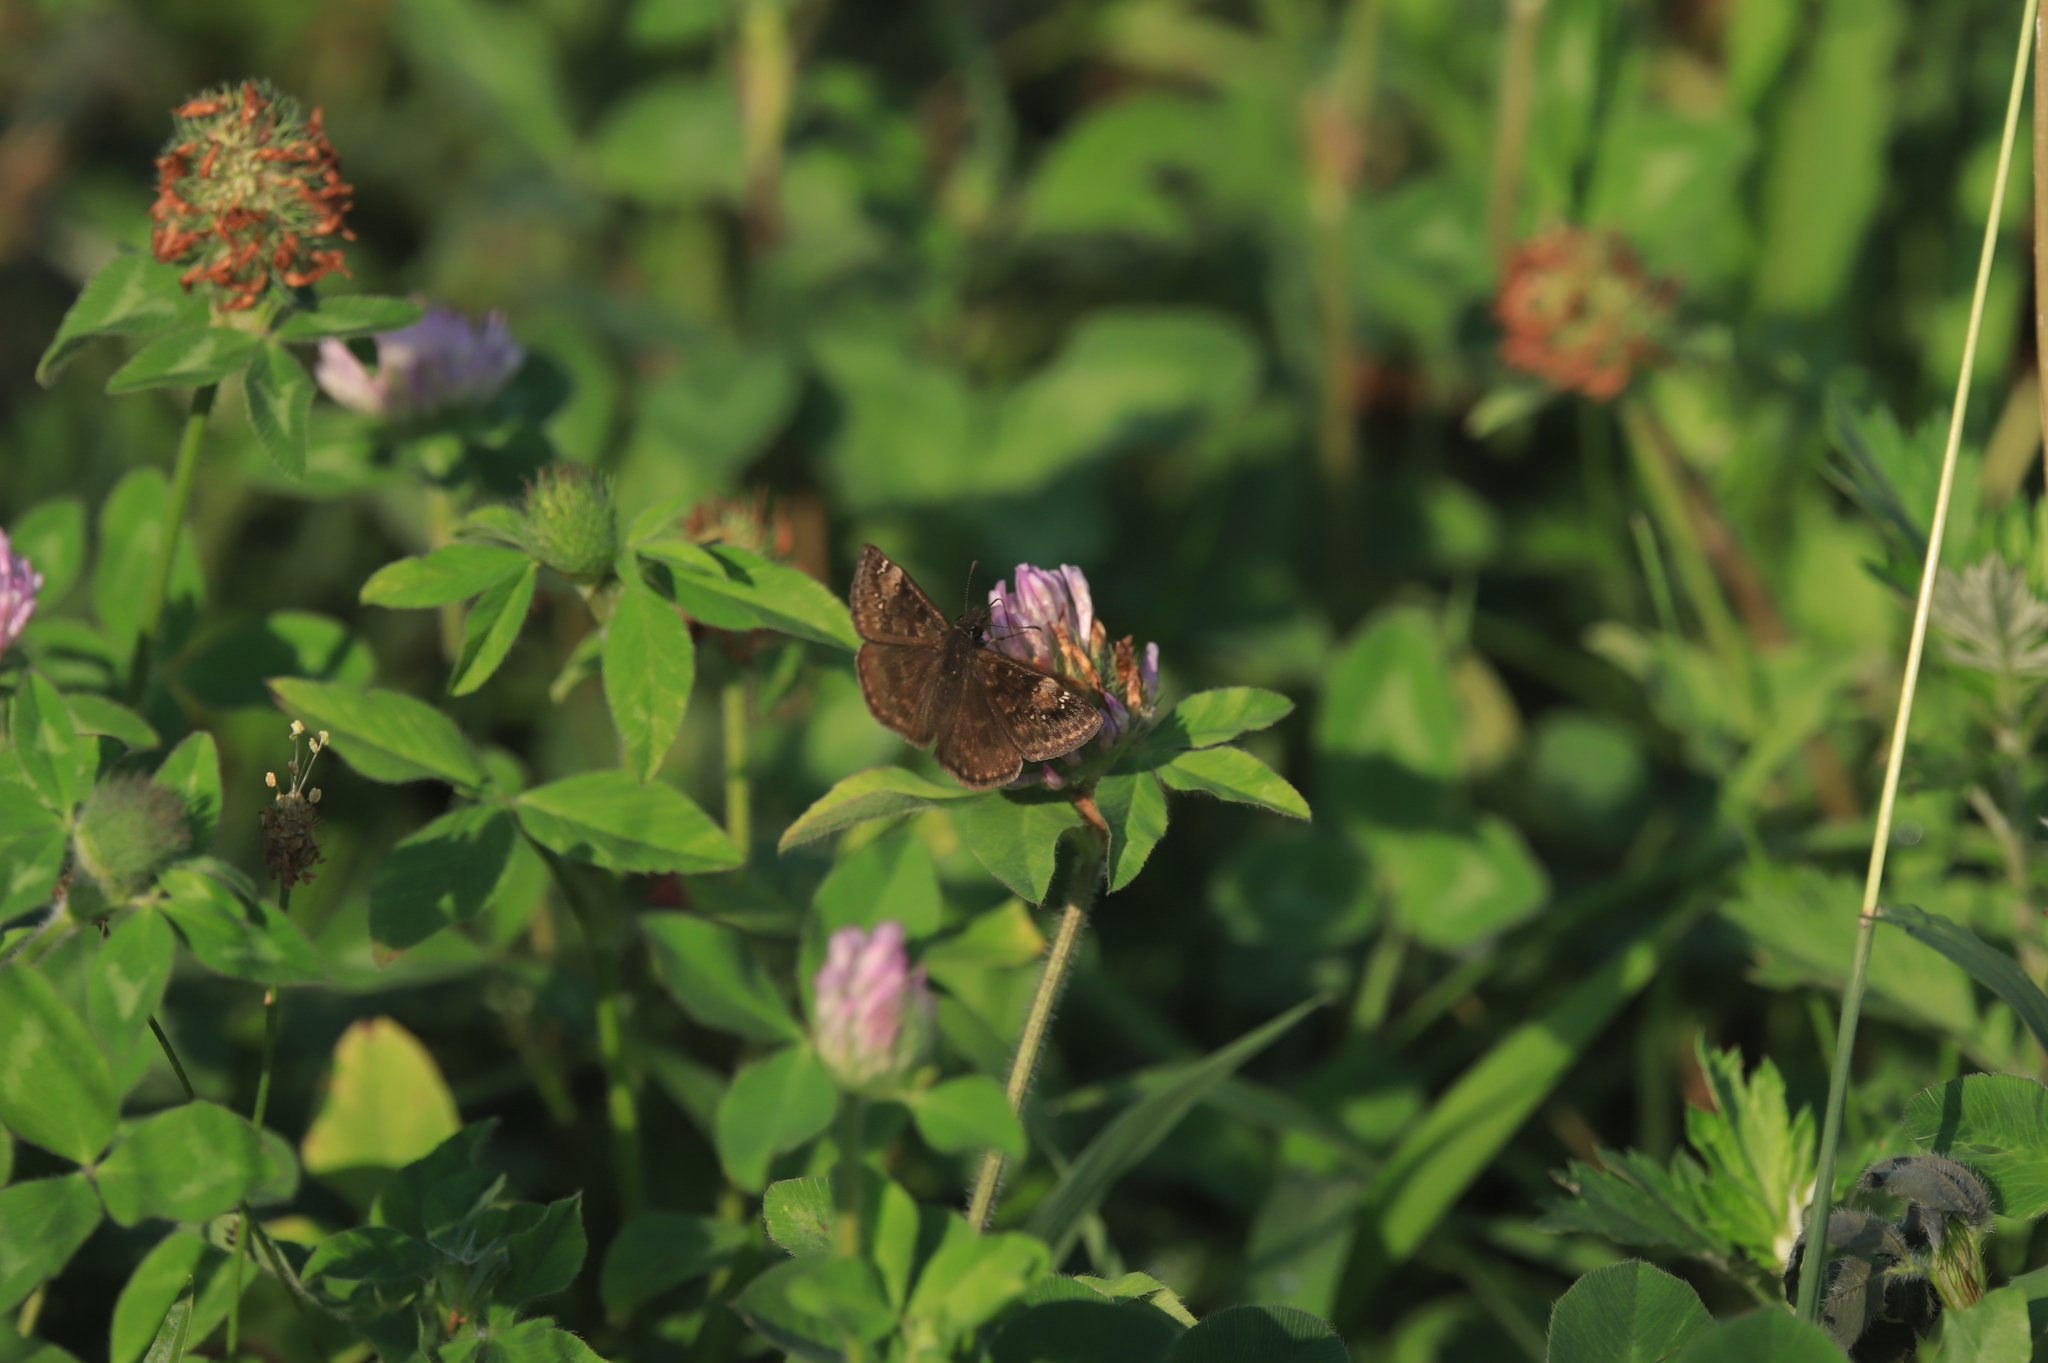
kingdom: Animalia
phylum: Arthropoda
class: Insecta
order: Lepidoptera
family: Hesperiidae
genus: Erynnis
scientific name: Erynnis baptisiae
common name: Wild indigo duskywing
